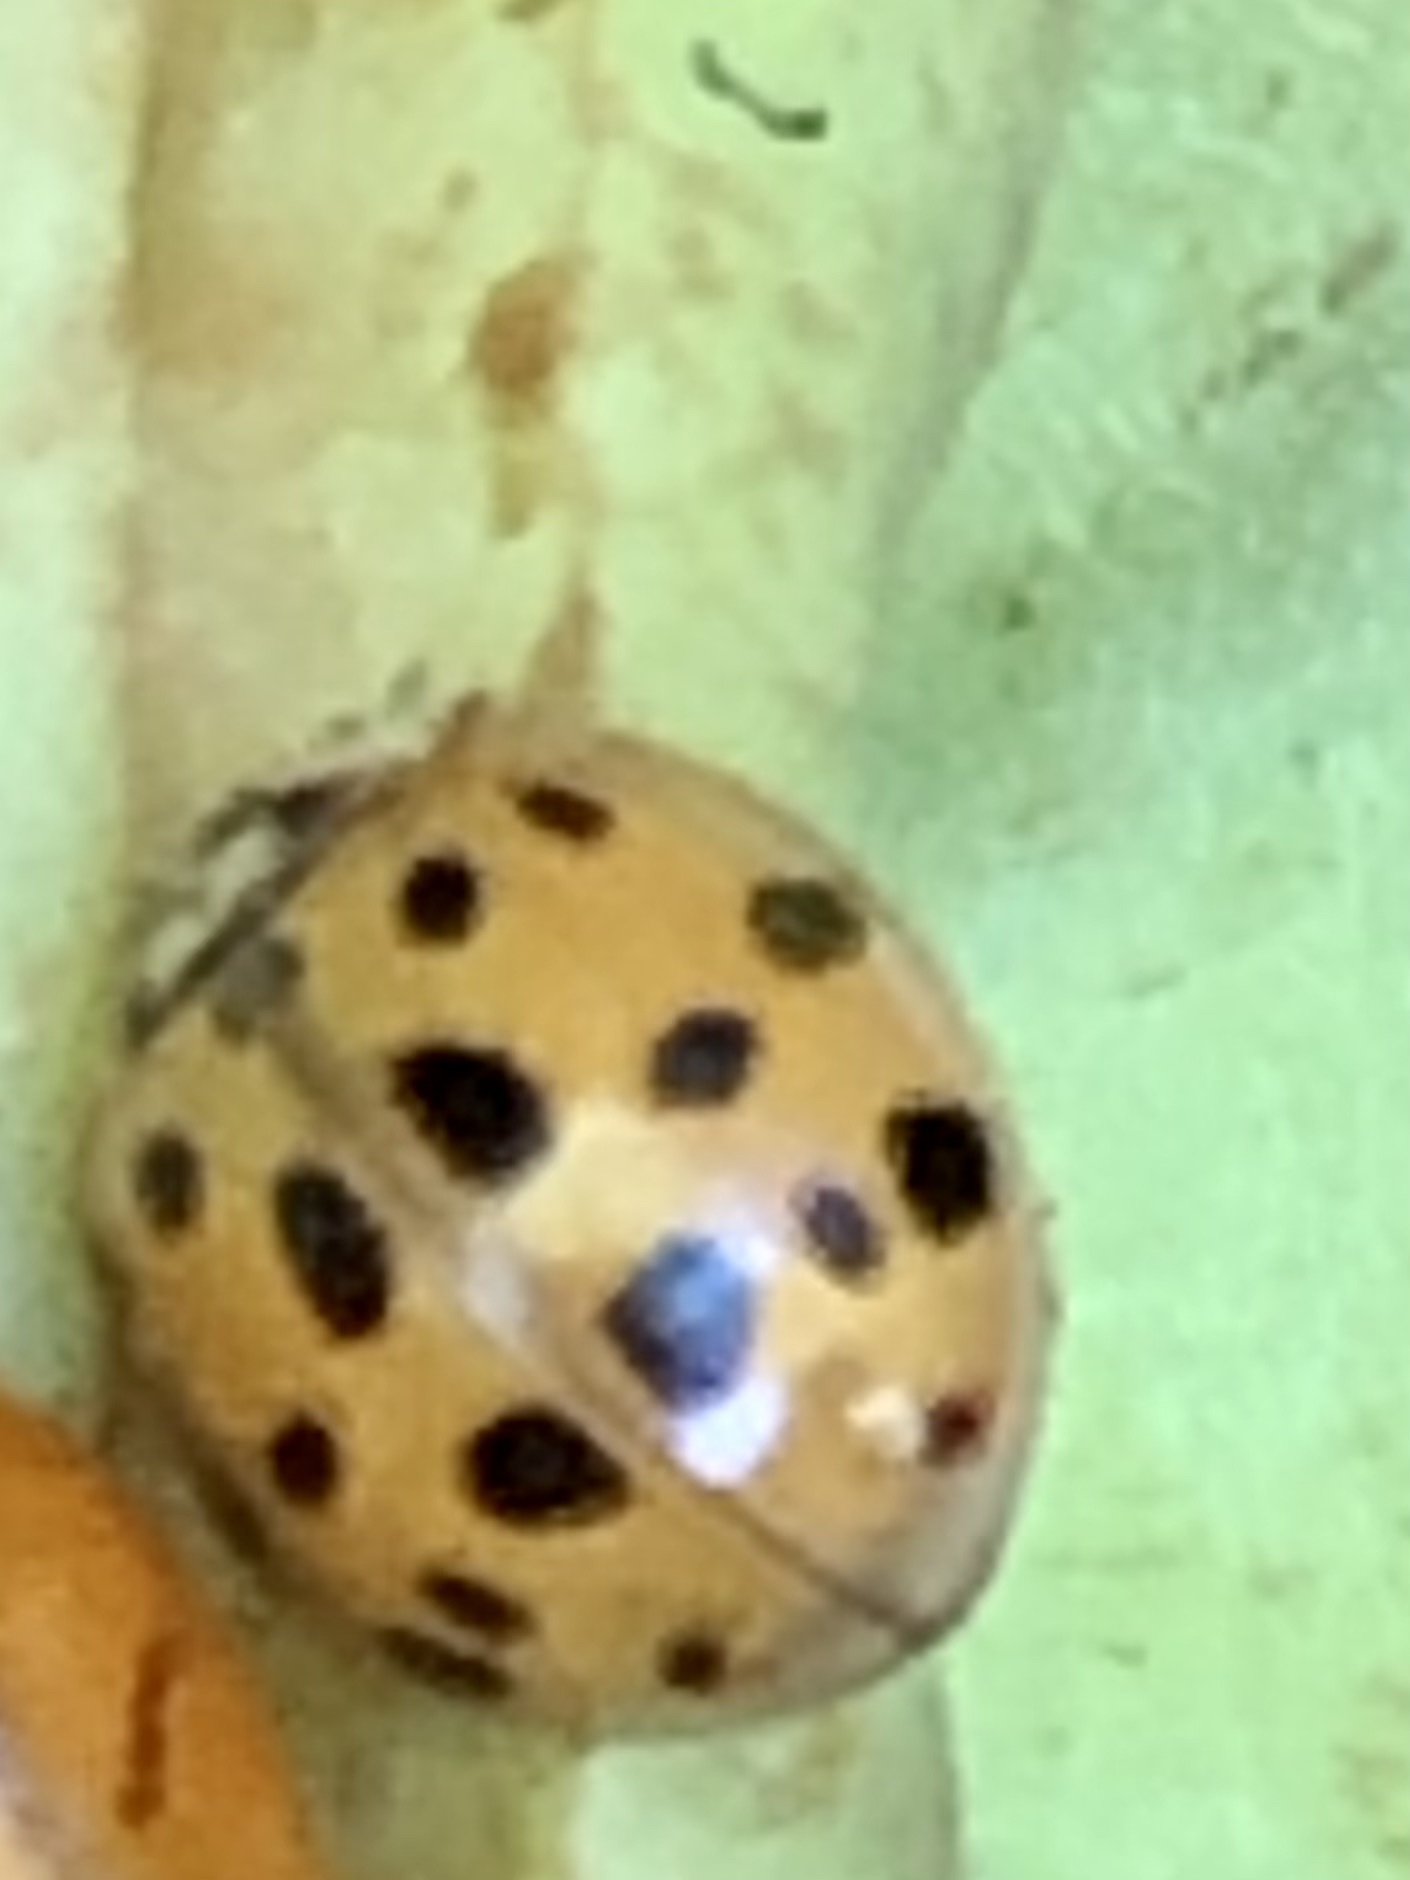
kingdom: Animalia
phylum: Arthropoda
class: Insecta
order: Coleoptera
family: Coccinellidae
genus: Harmonia
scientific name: Harmonia axyridis
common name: Harlequin ladybird
